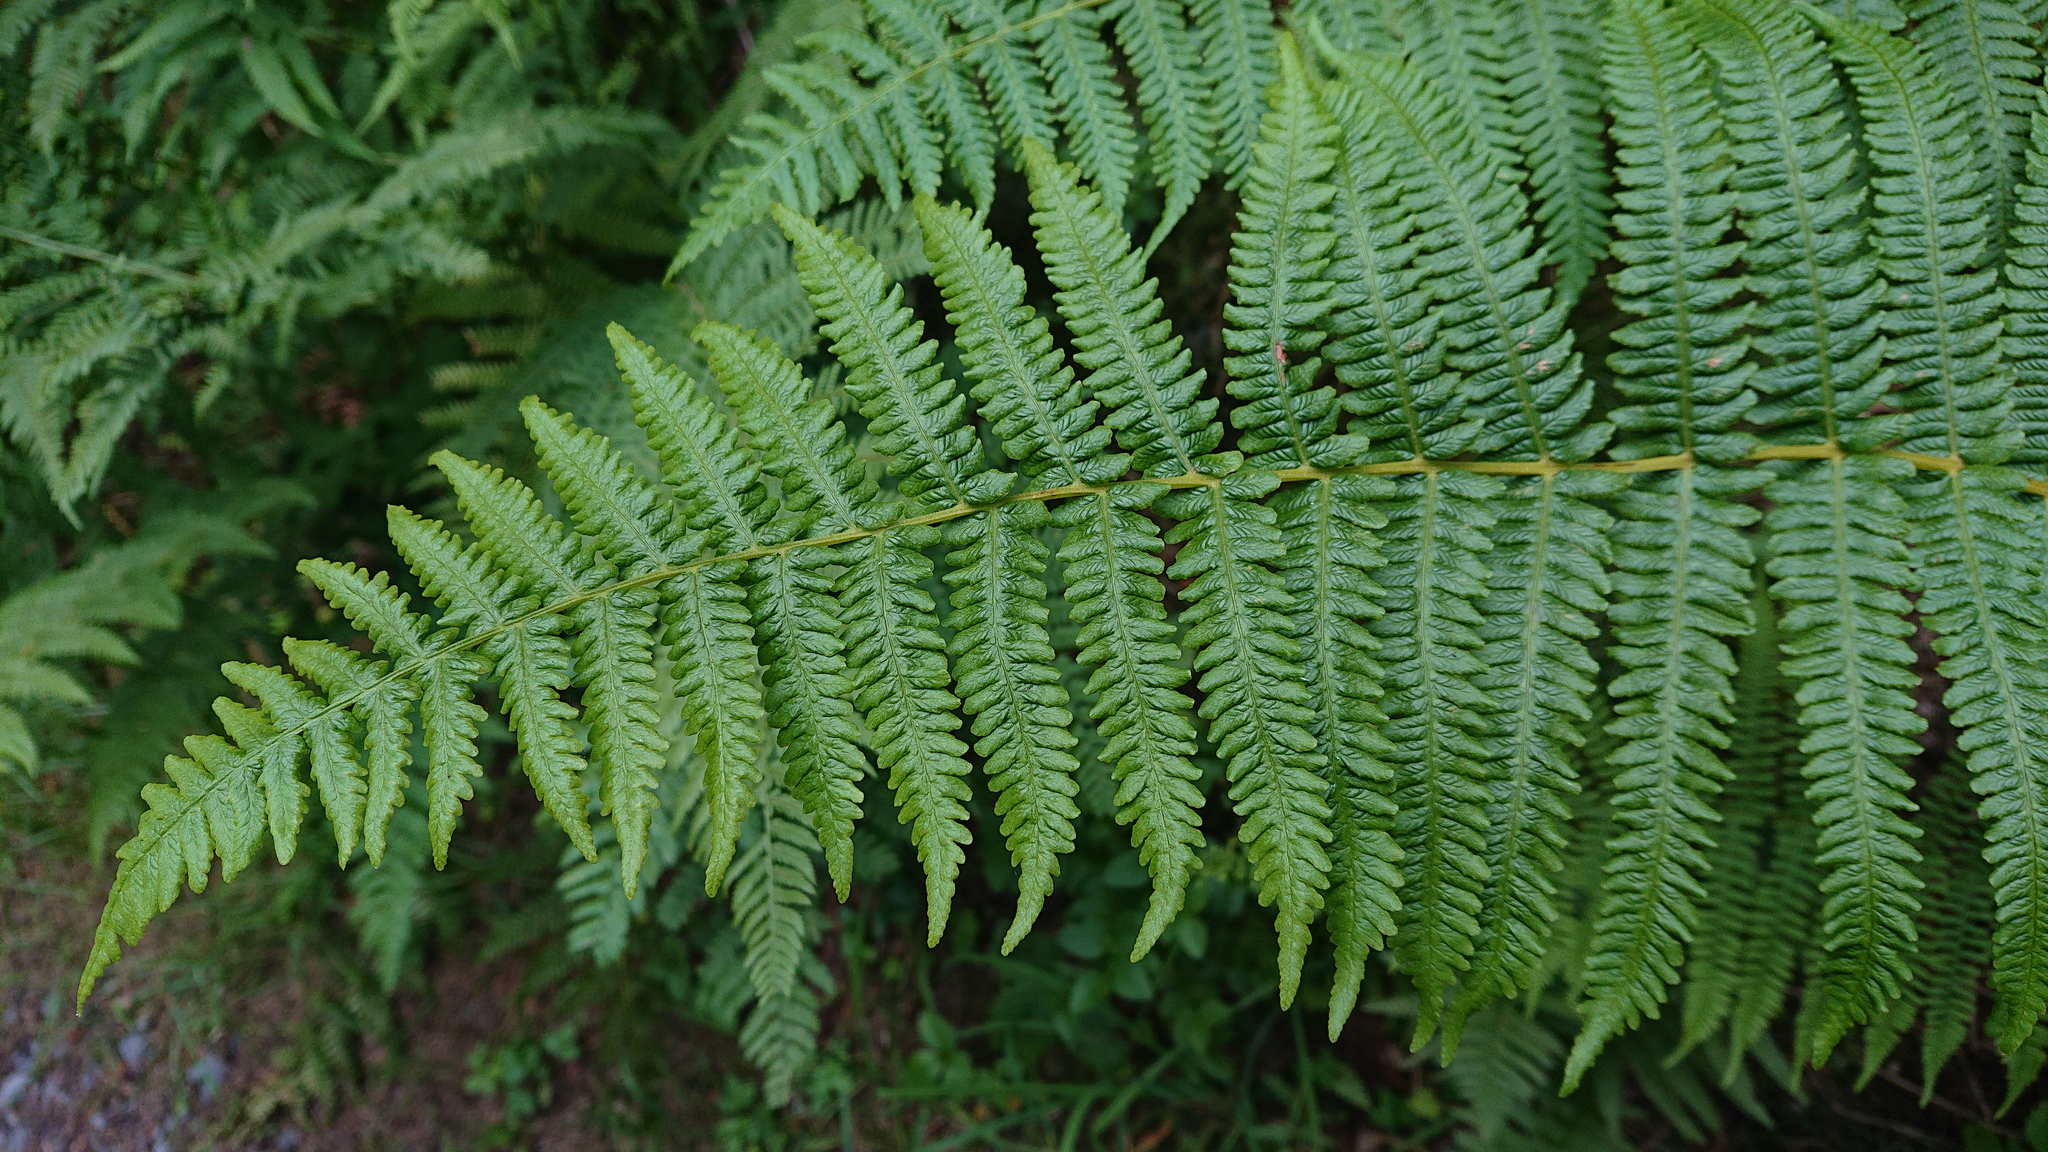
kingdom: Plantae
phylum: Tracheophyta
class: Polypodiopsida
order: Polypodiales
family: Thelypteridaceae
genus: Oreopteris
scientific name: Oreopteris limbosperma
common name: Lemon-scented fern
